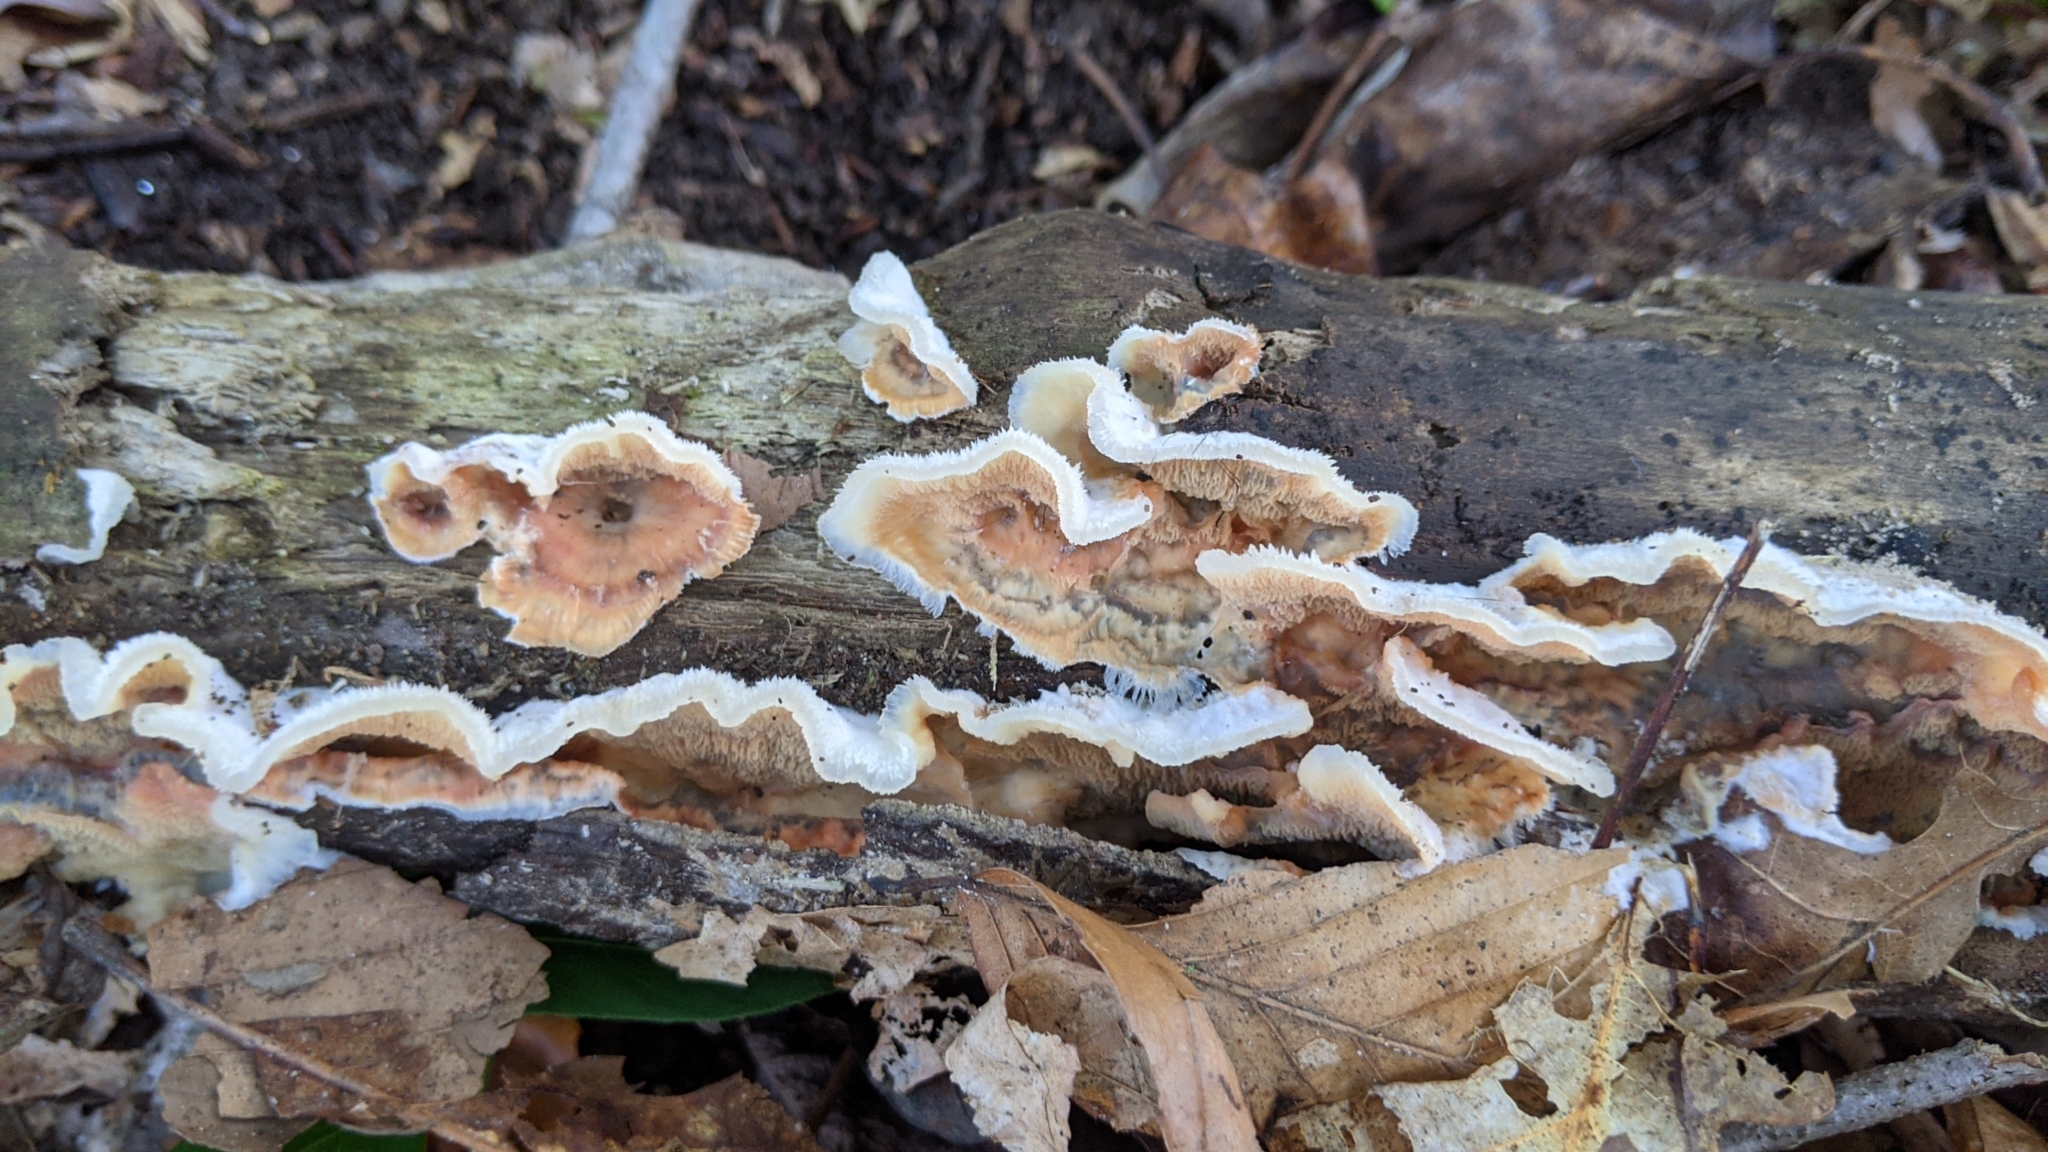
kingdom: Fungi
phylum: Basidiomycota
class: Agaricomycetes
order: Polyporales
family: Meruliaceae
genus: Phlebia
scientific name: Phlebia tremellosa
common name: Jelly rot
